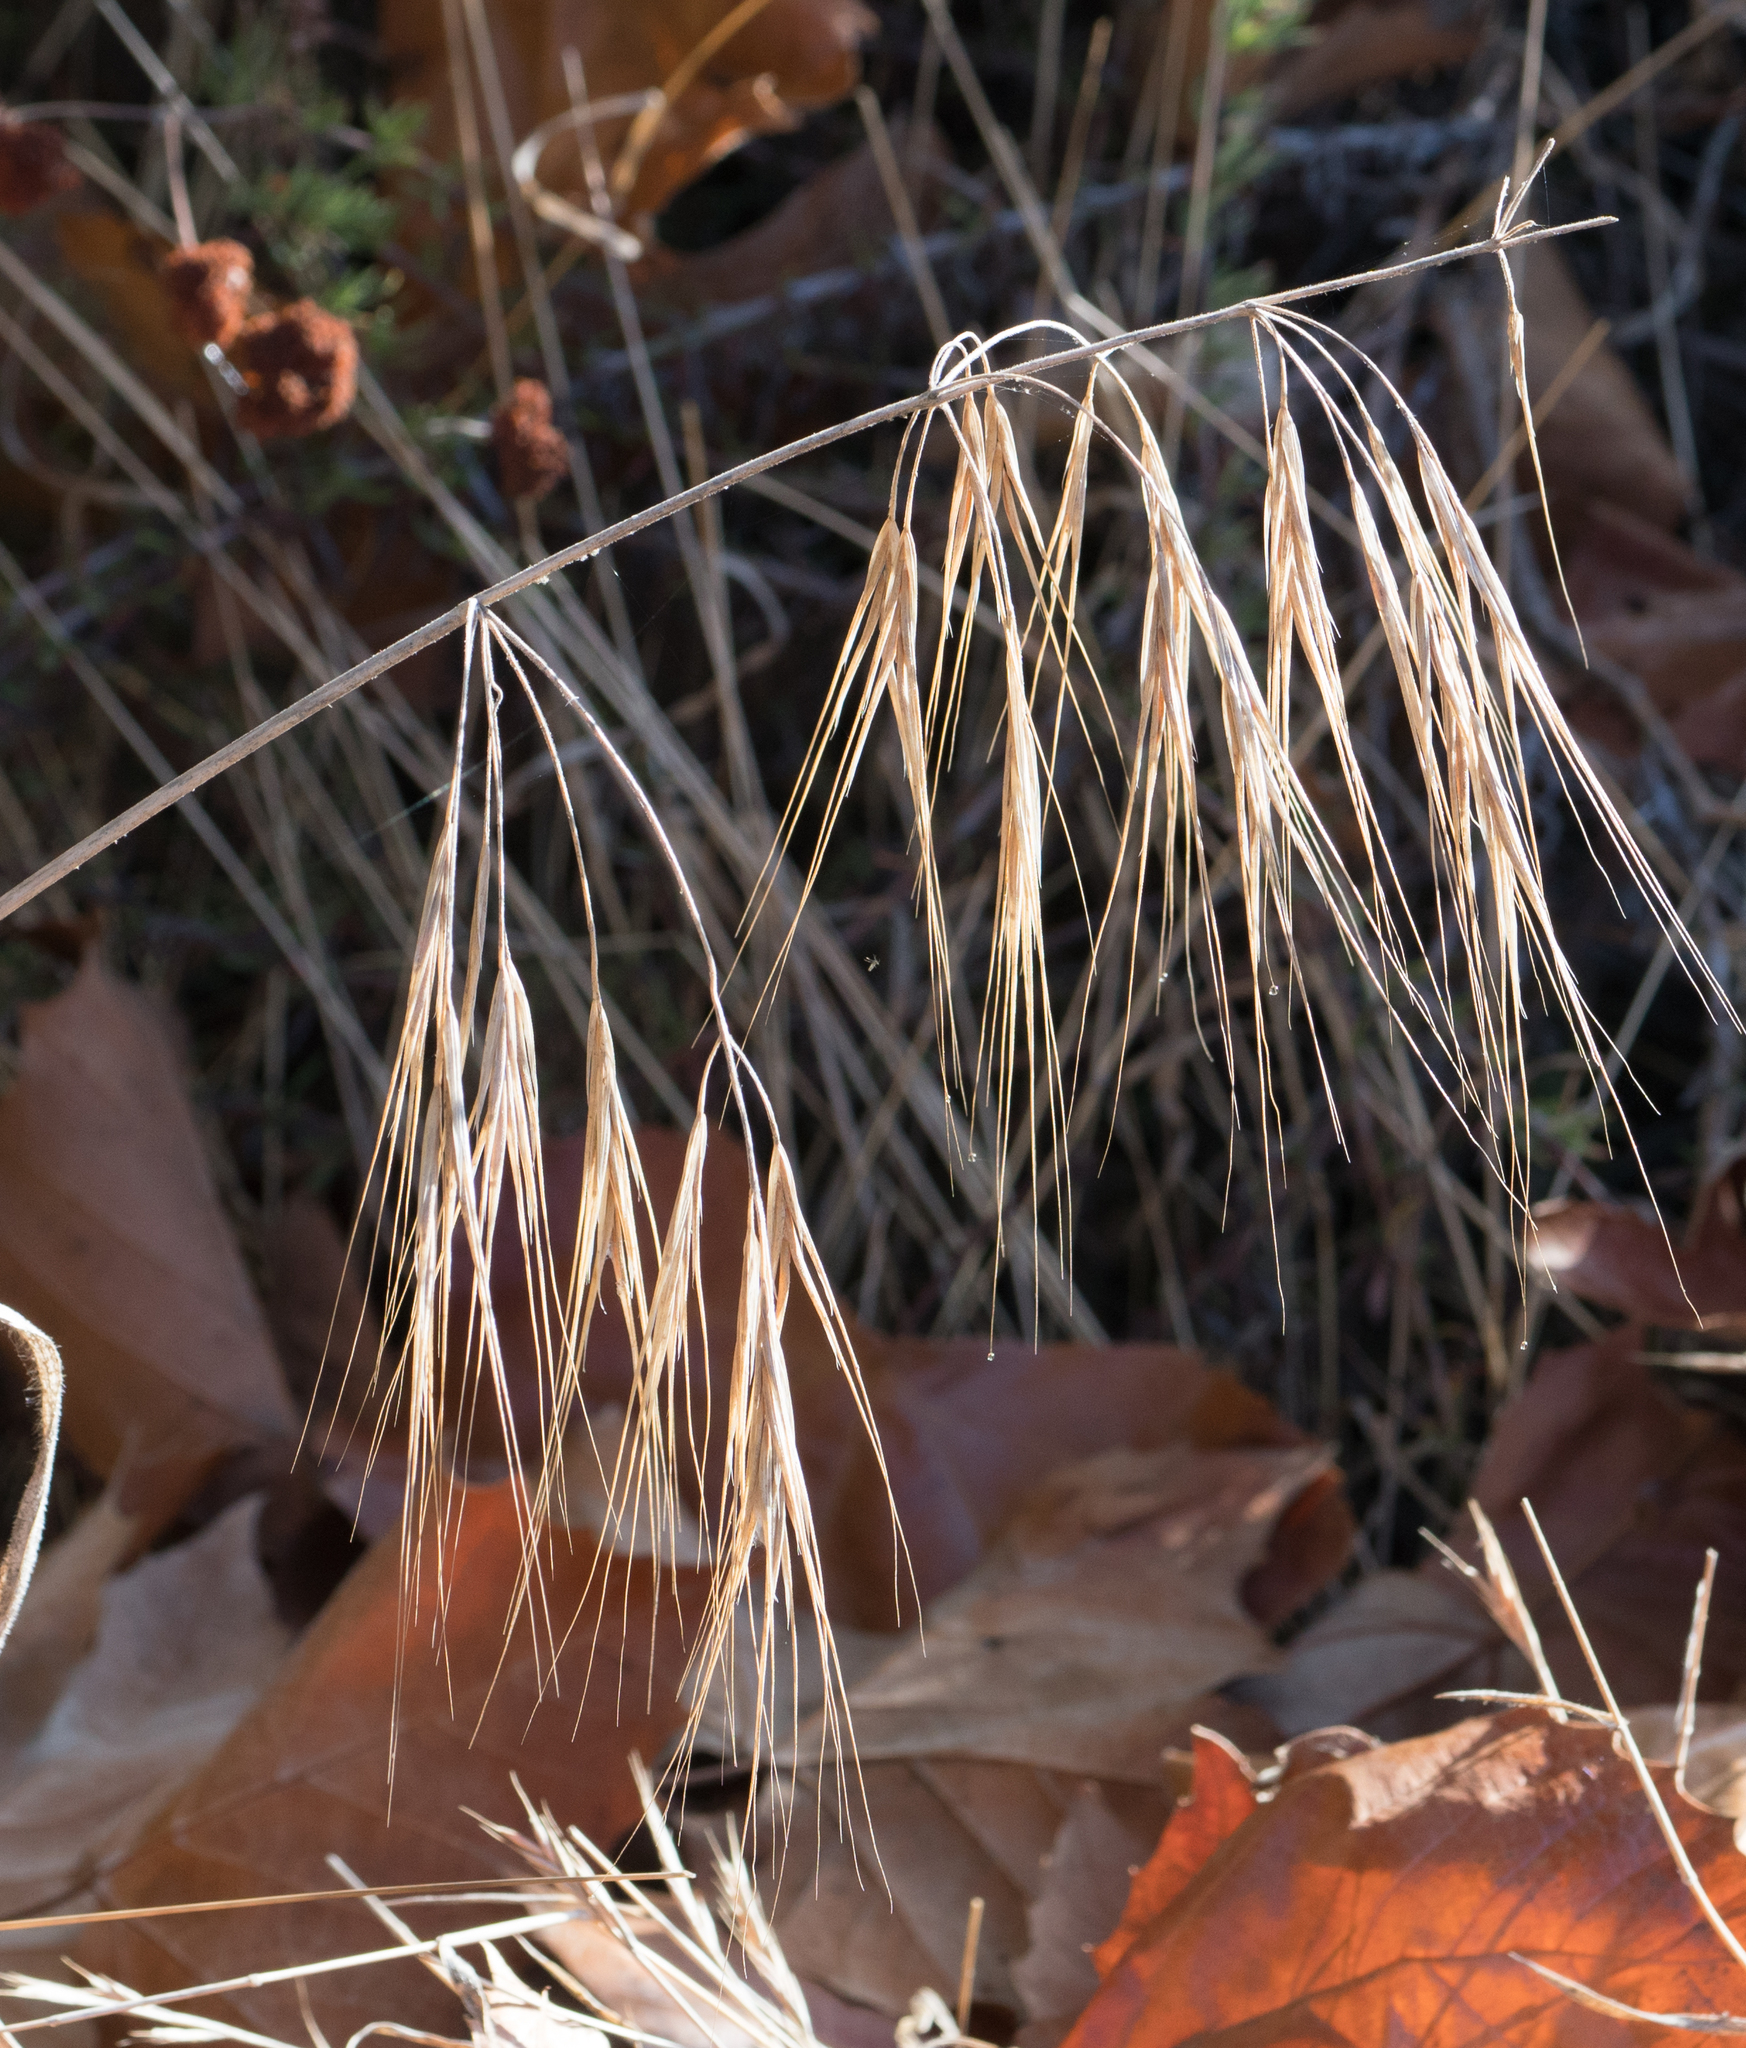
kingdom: Plantae
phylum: Tracheophyta
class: Liliopsida
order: Poales
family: Poaceae
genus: Bromus
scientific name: Bromus diandrus
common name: Ripgut brome
